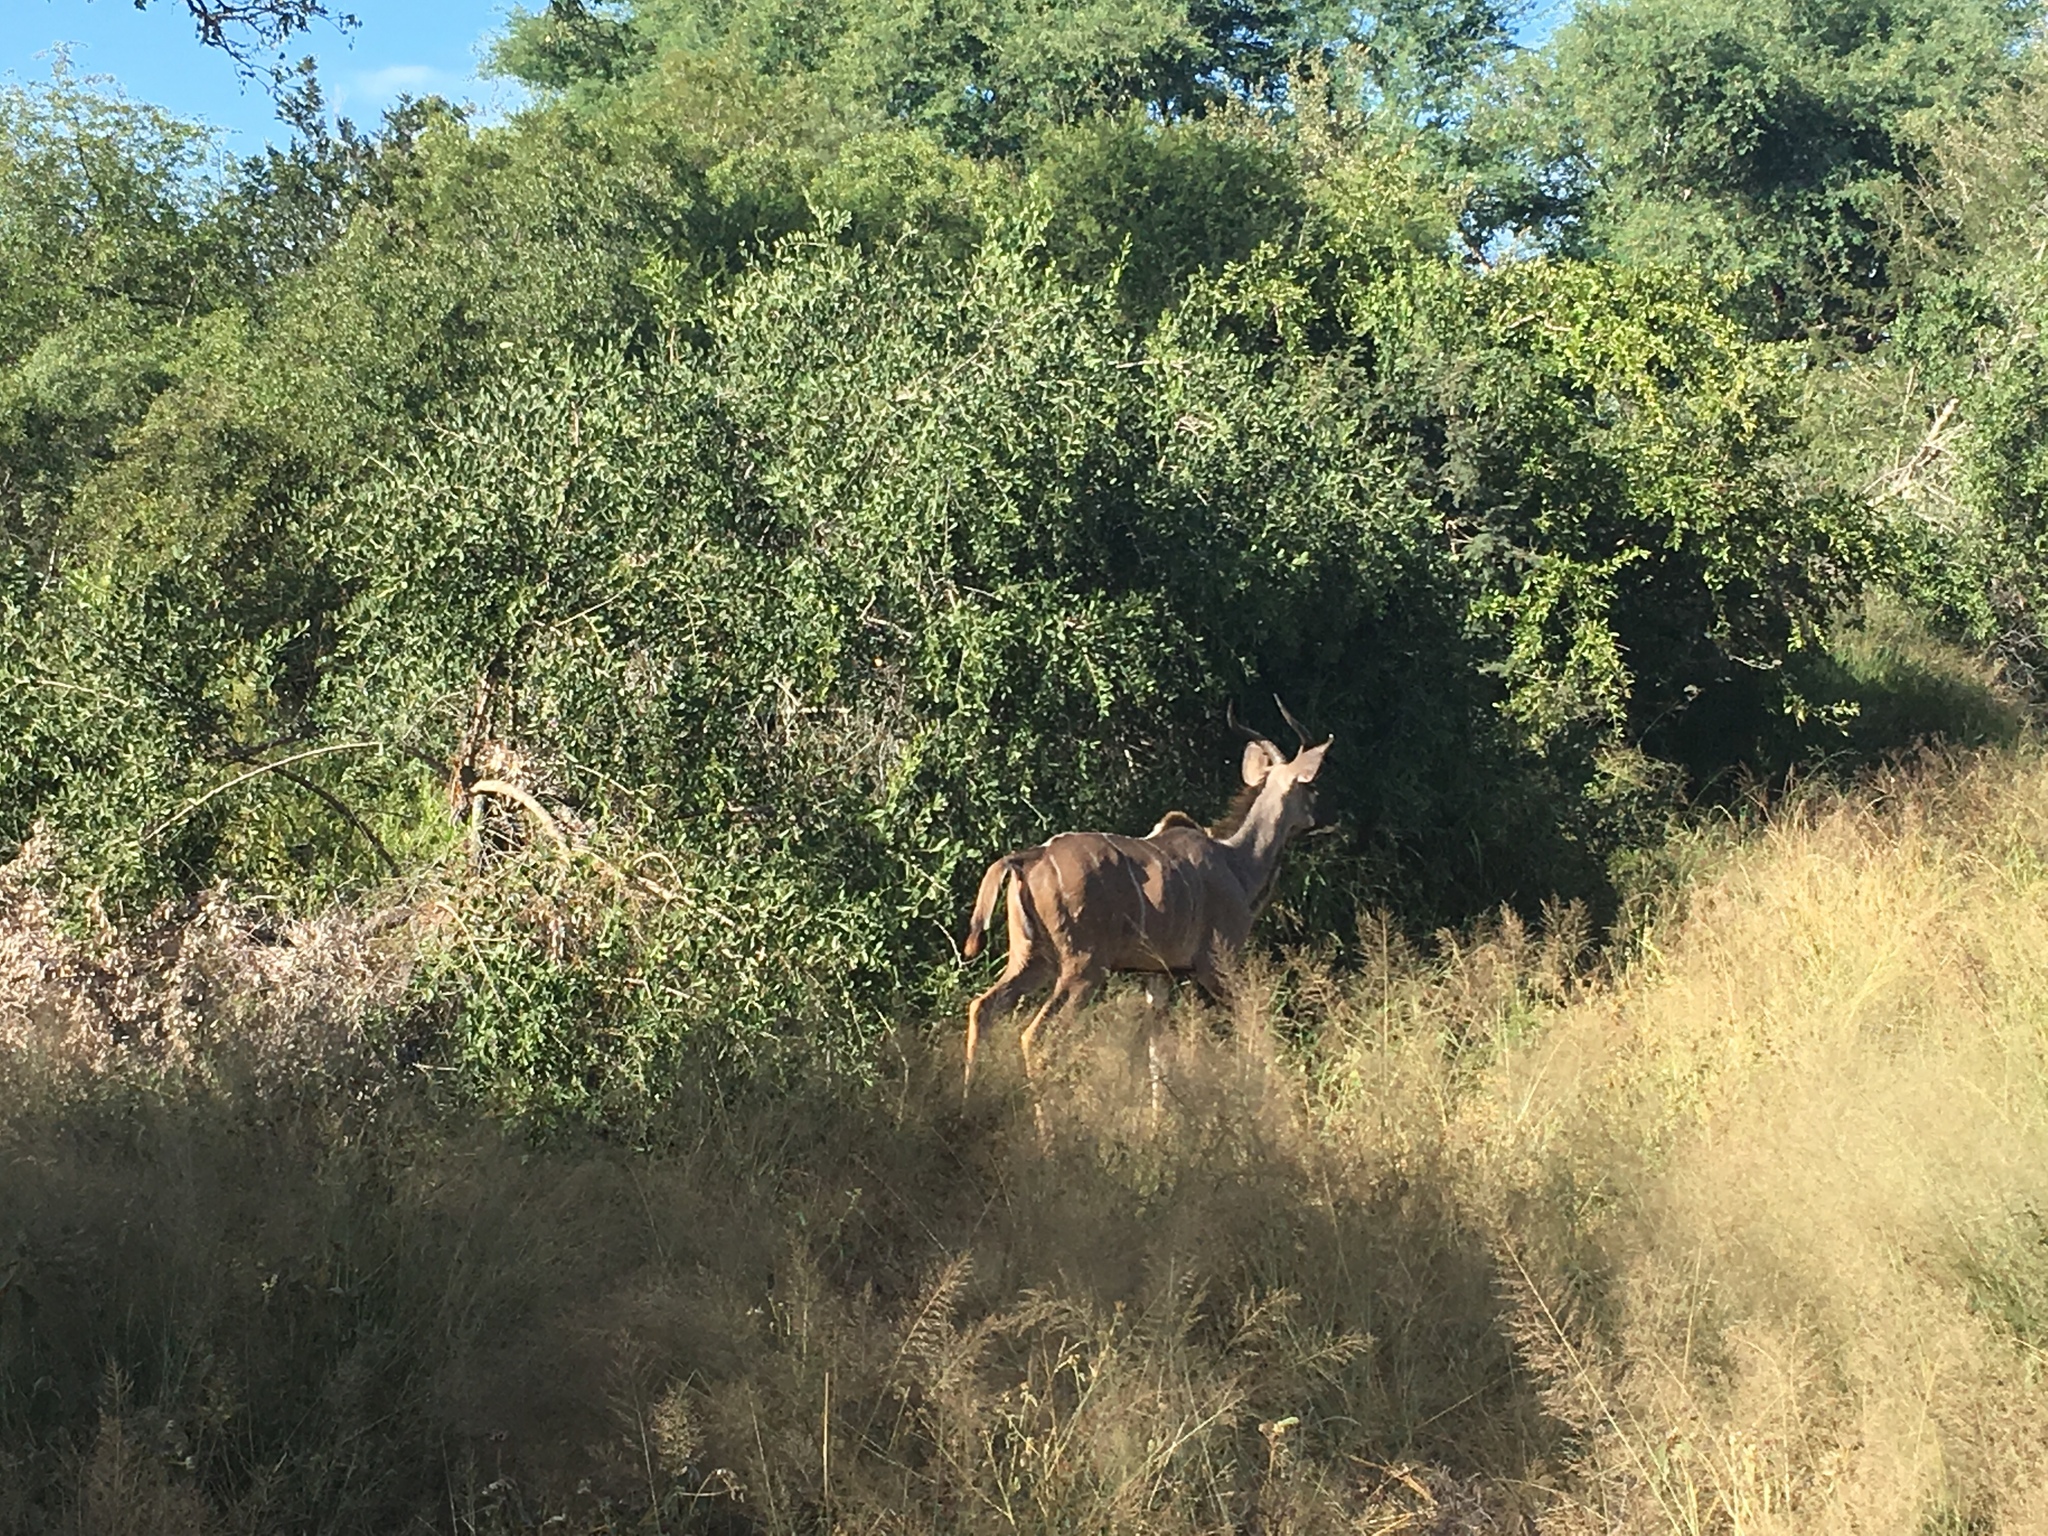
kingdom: Animalia
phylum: Chordata
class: Mammalia
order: Artiodactyla
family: Bovidae
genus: Tragelaphus
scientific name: Tragelaphus strepsiceros
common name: Greater kudu
